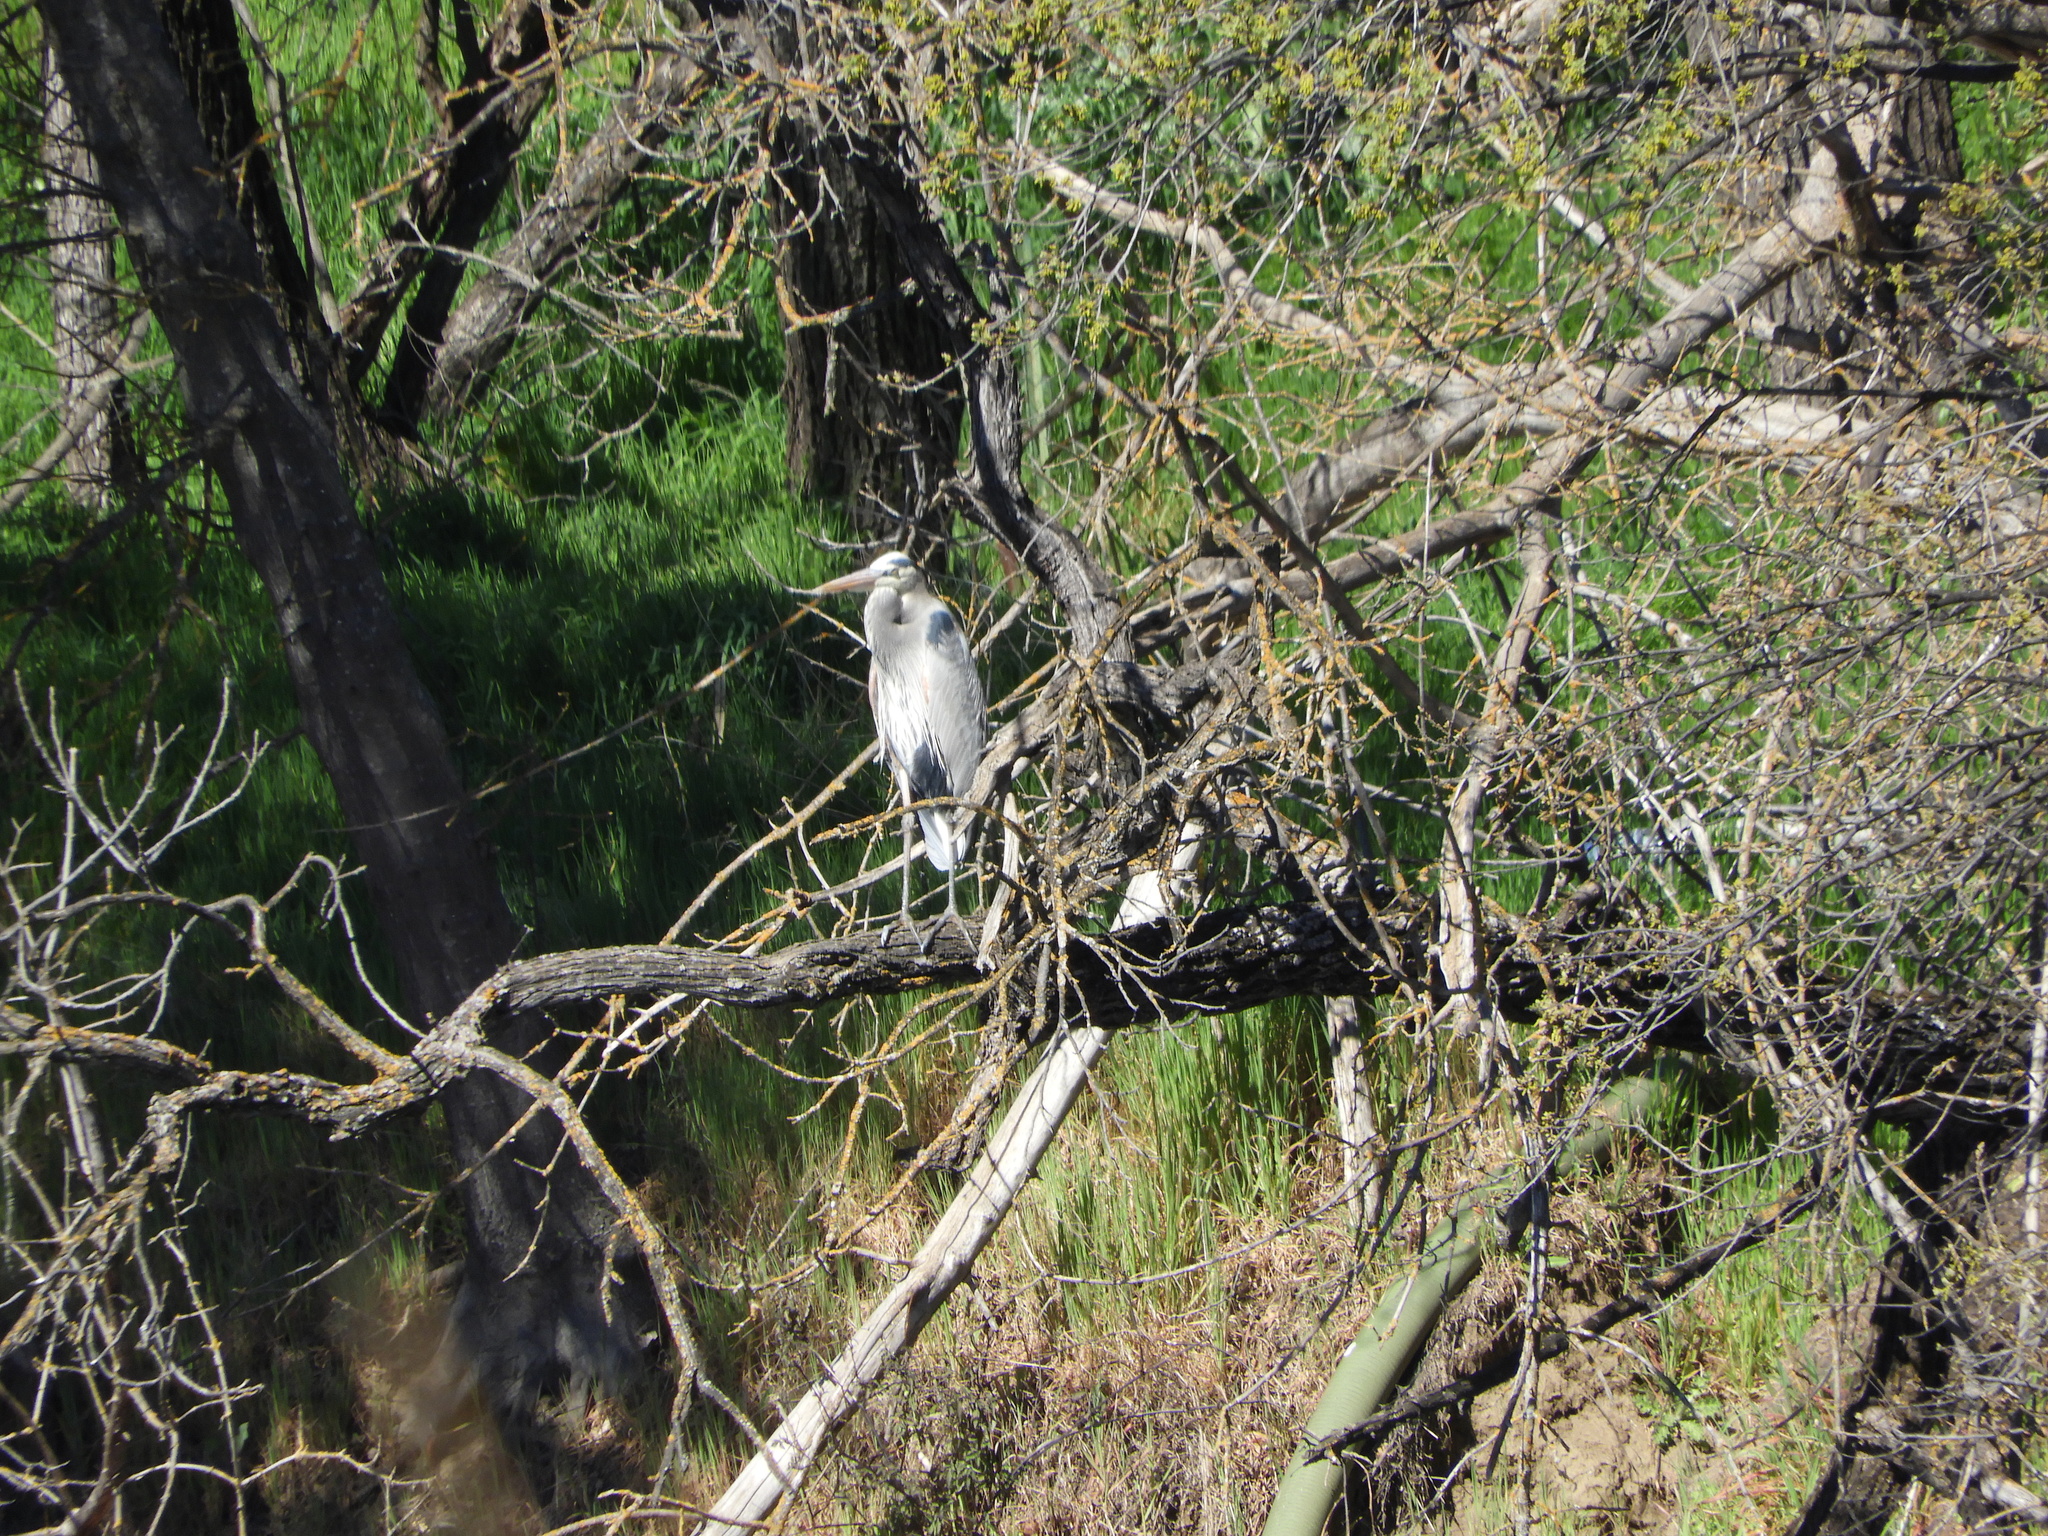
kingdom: Animalia
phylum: Chordata
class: Aves
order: Pelecaniformes
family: Ardeidae
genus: Ardea
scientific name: Ardea herodias
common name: Great blue heron
